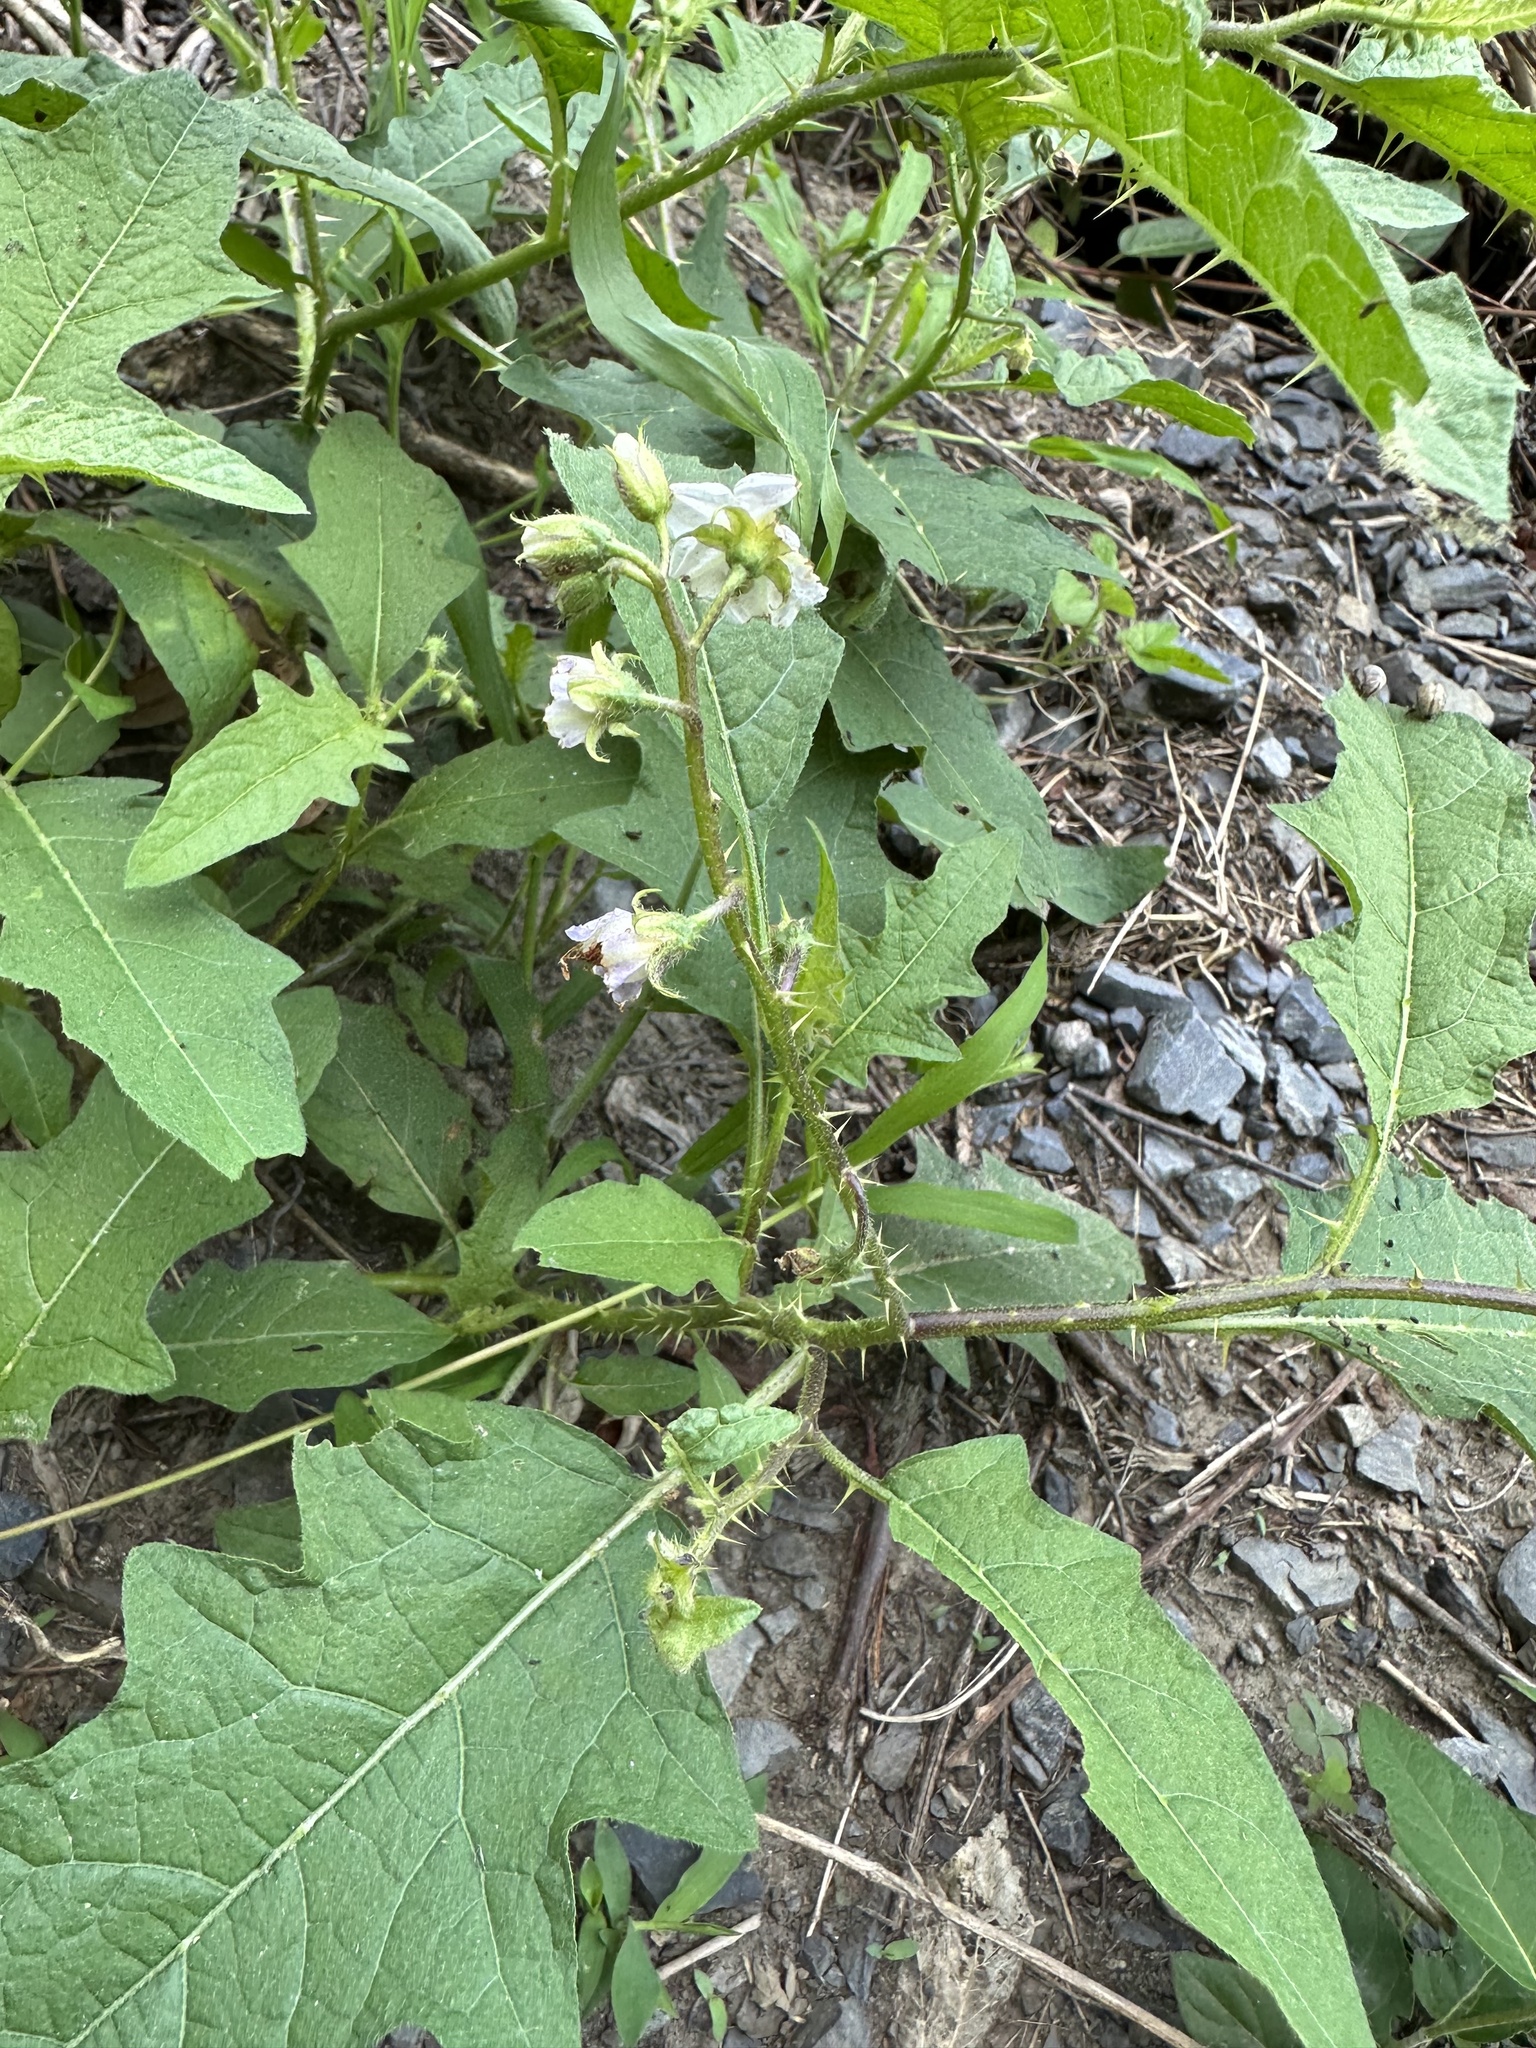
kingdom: Plantae
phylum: Tracheophyta
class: Magnoliopsida
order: Solanales
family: Solanaceae
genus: Solanum
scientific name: Solanum carolinense
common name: Horse-nettle
